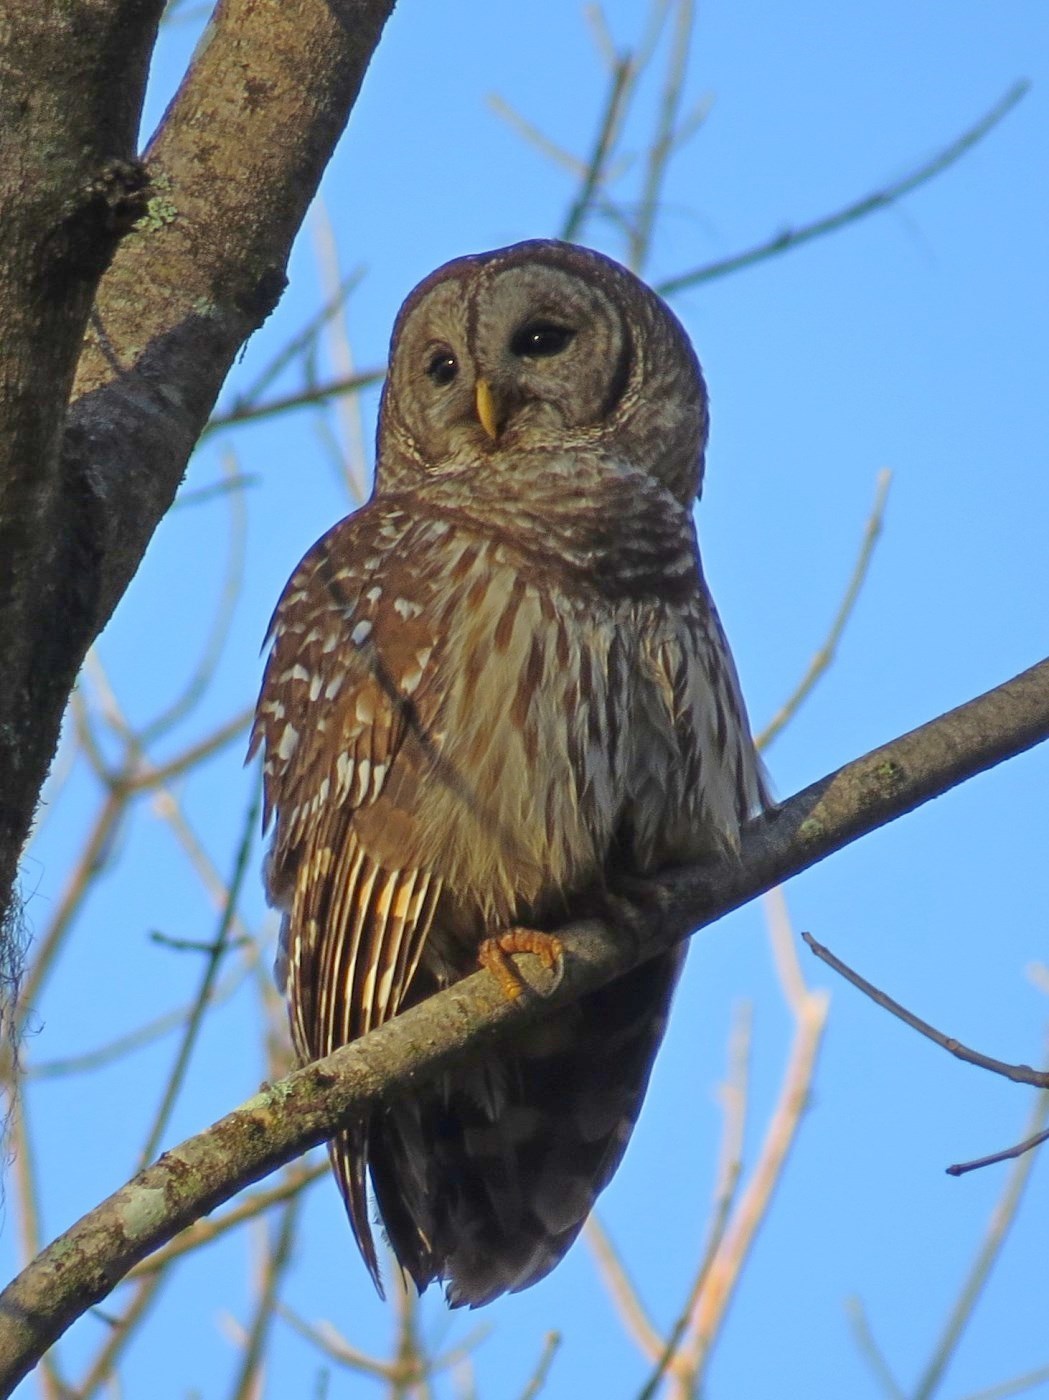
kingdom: Animalia
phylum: Chordata
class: Aves
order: Strigiformes
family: Strigidae
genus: Strix
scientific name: Strix varia
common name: Barred owl
